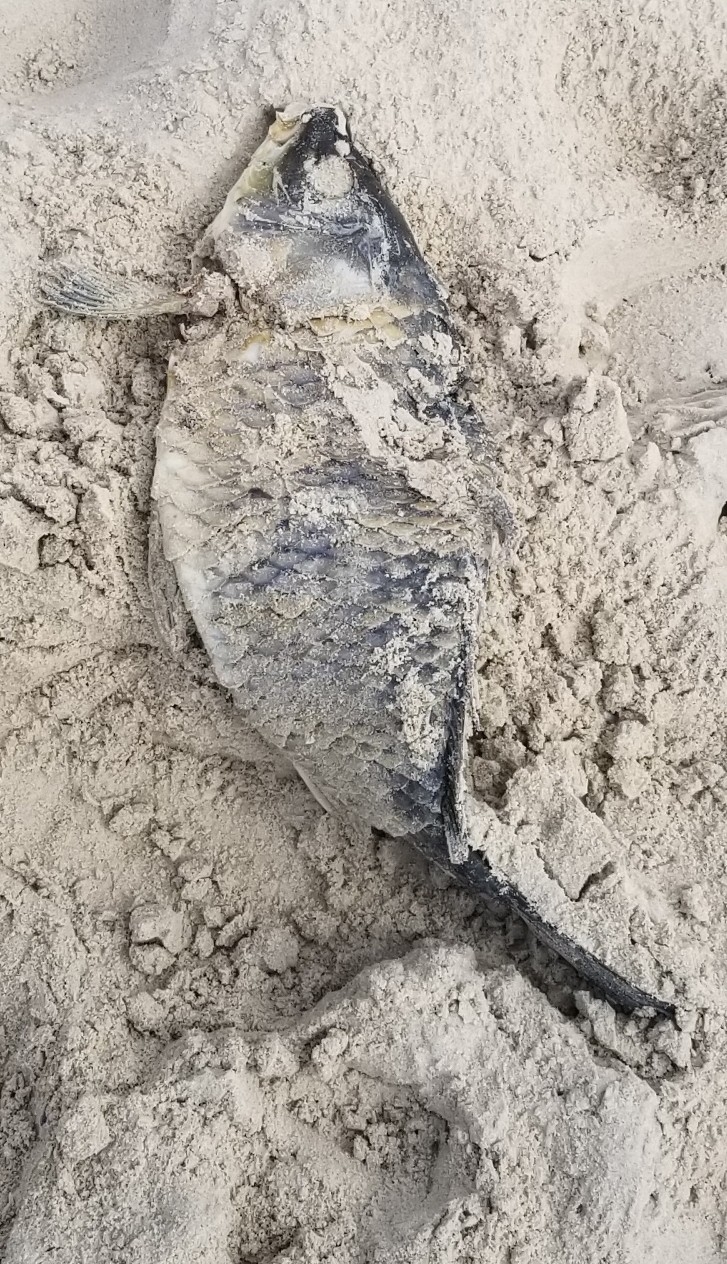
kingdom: Animalia
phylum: Chordata
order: Cypriniformes
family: Cyprinidae
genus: Cyprinus
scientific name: Cyprinus carpio
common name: Common carp
